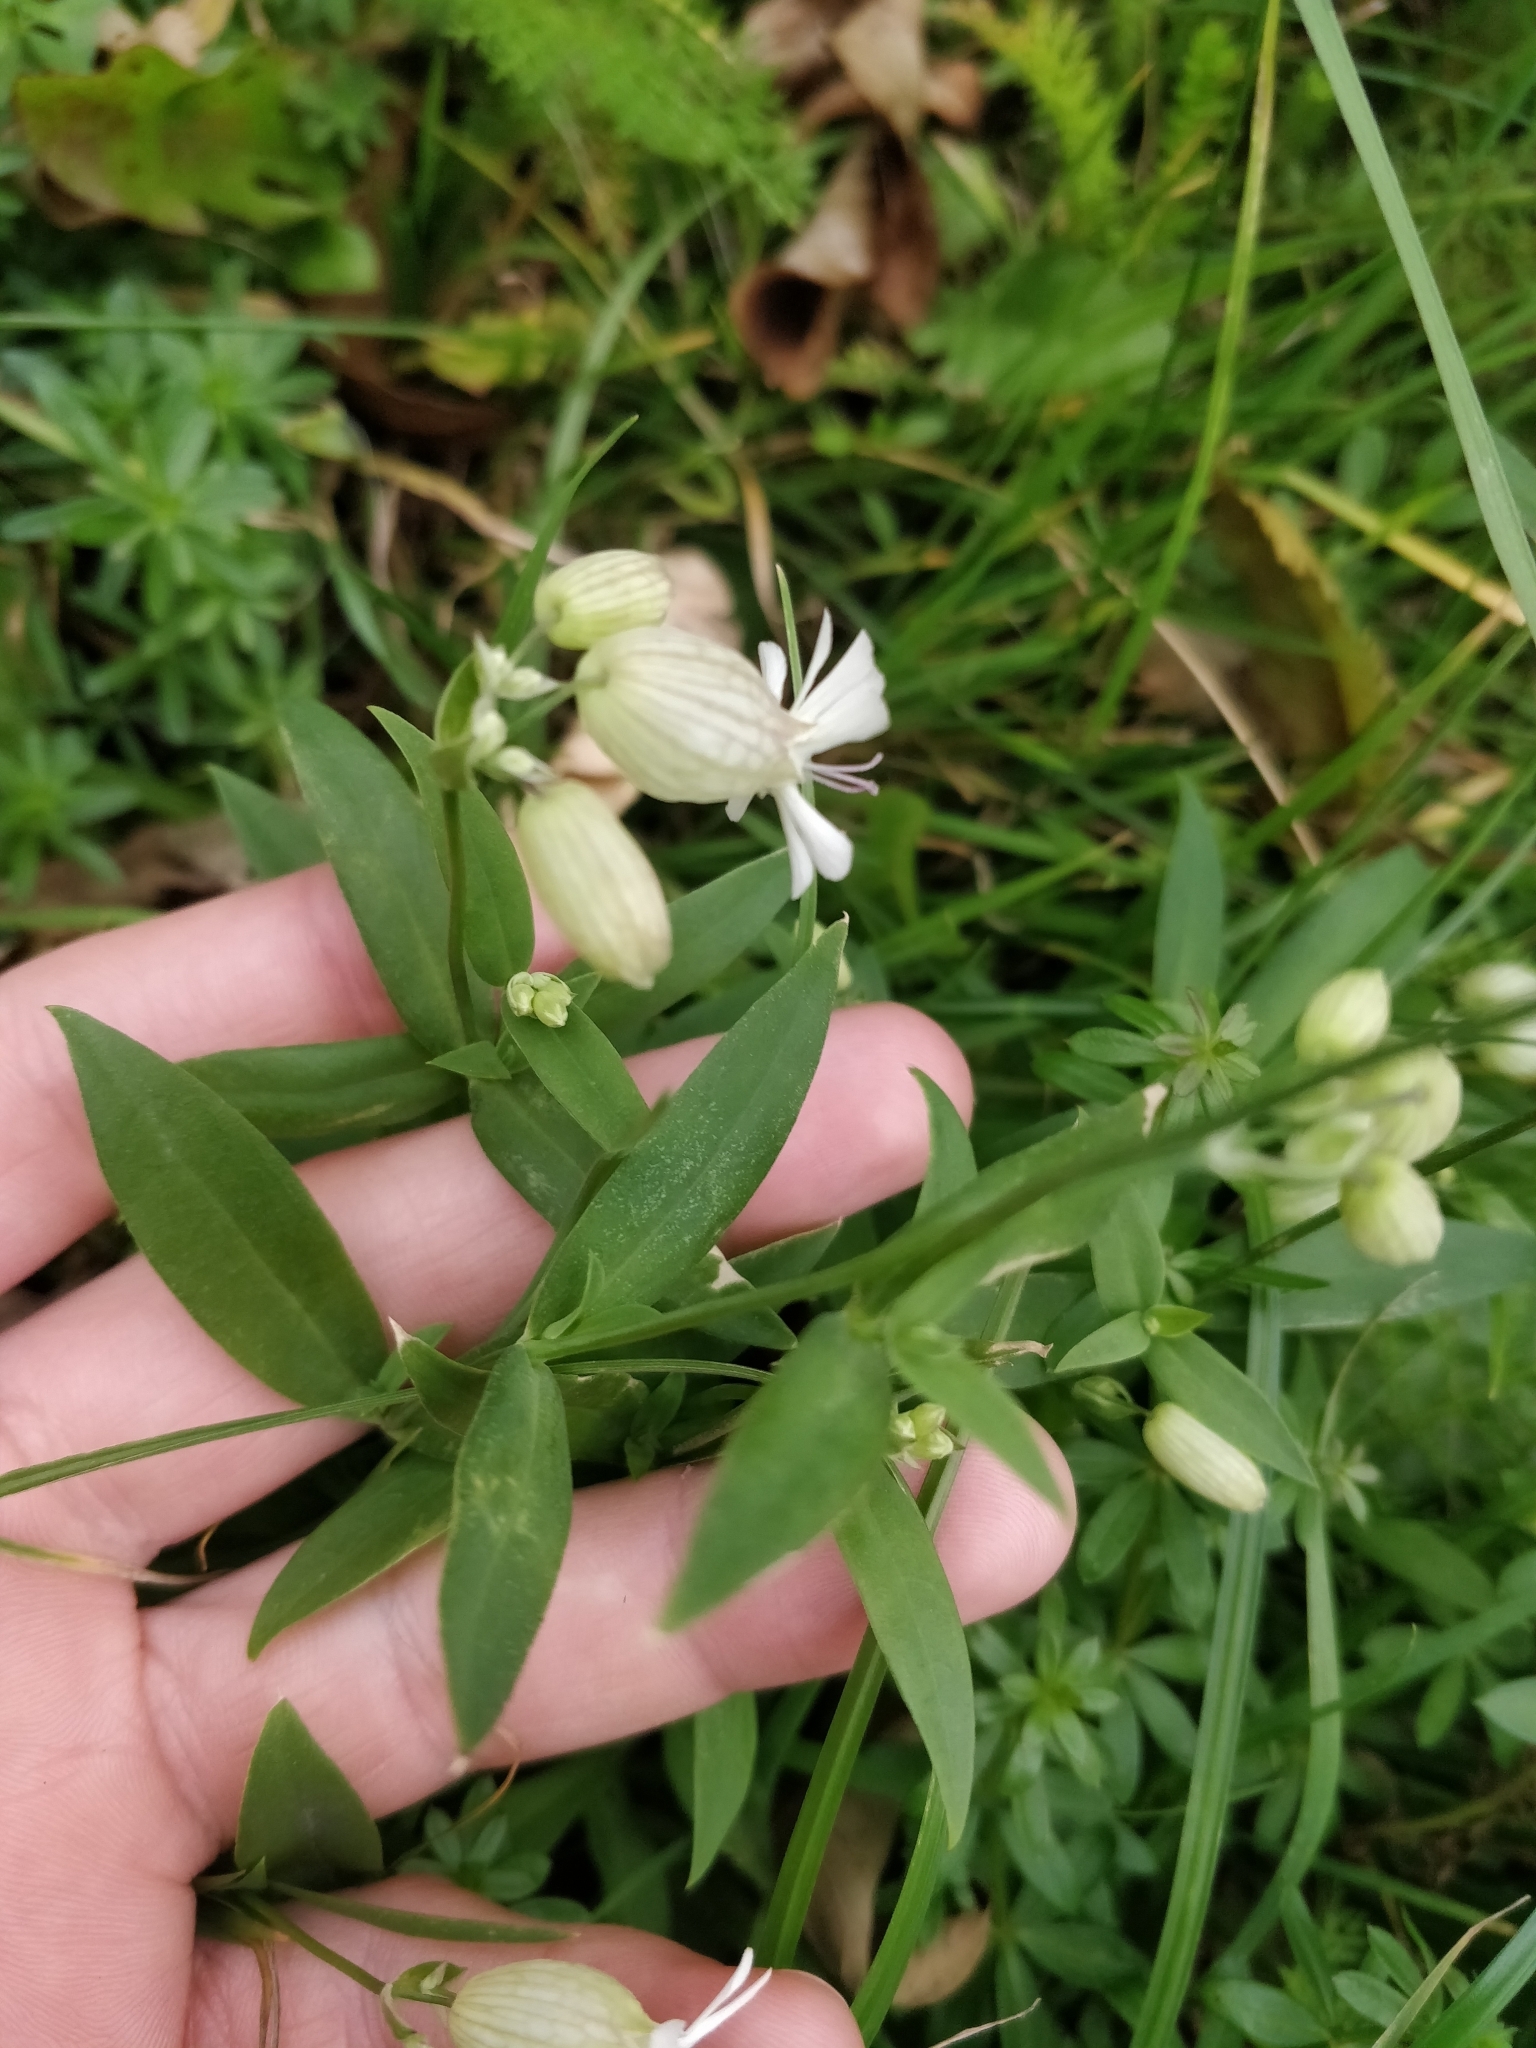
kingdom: Plantae
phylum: Tracheophyta
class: Magnoliopsida
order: Caryophyllales
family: Caryophyllaceae
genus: Silene
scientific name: Silene vulgaris
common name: Bladder campion
